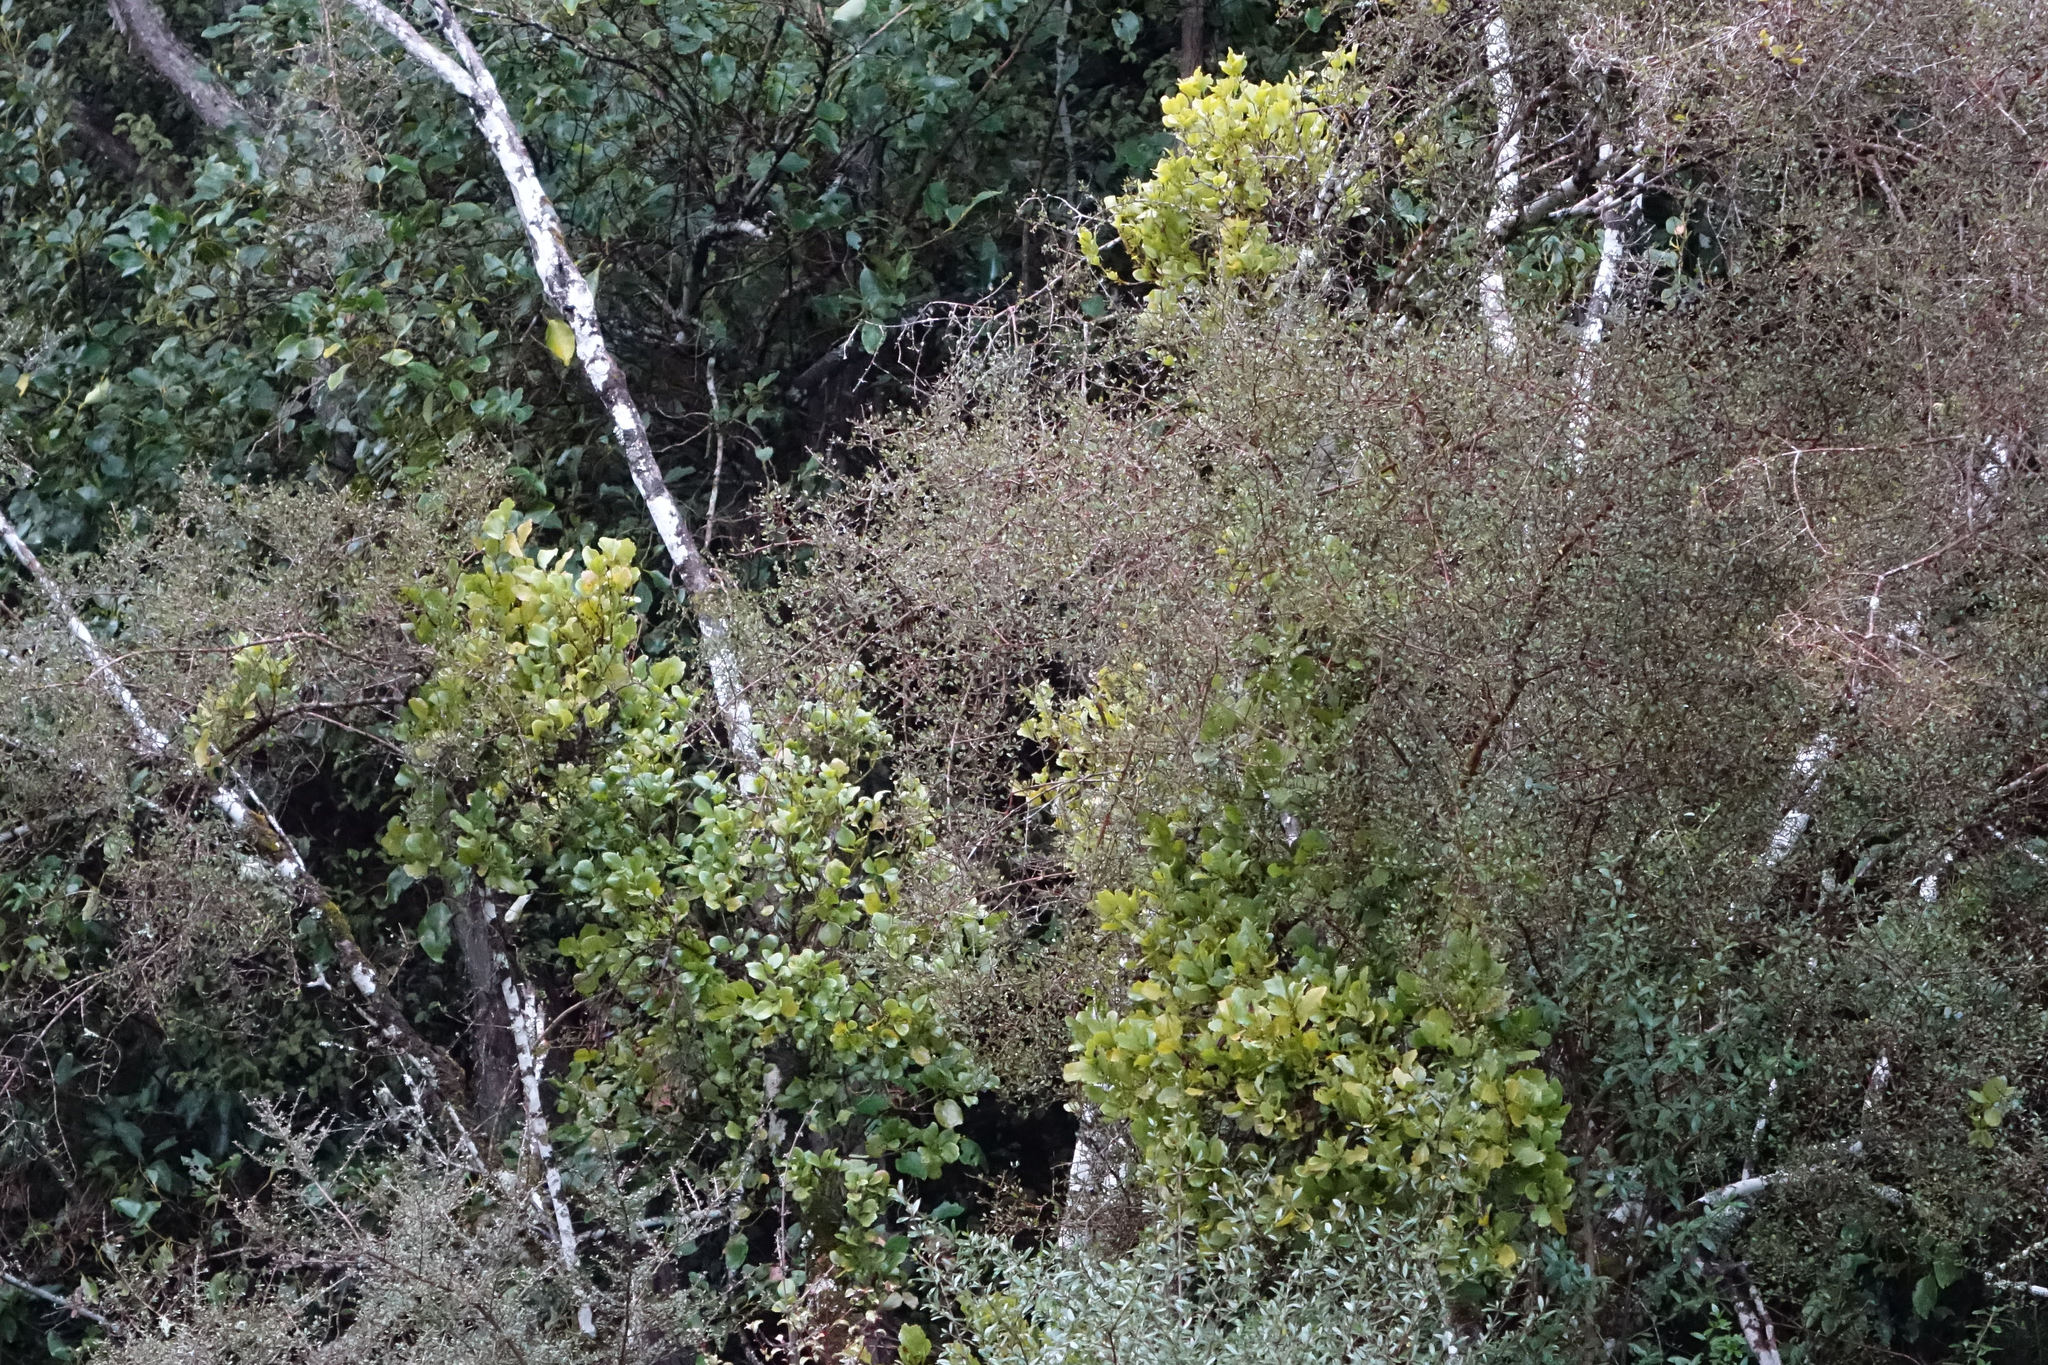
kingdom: Plantae
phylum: Tracheophyta
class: Magnoliopsida
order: Santalales
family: Loranthaceae
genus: Ileostylus
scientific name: Ileostylus micranthus
